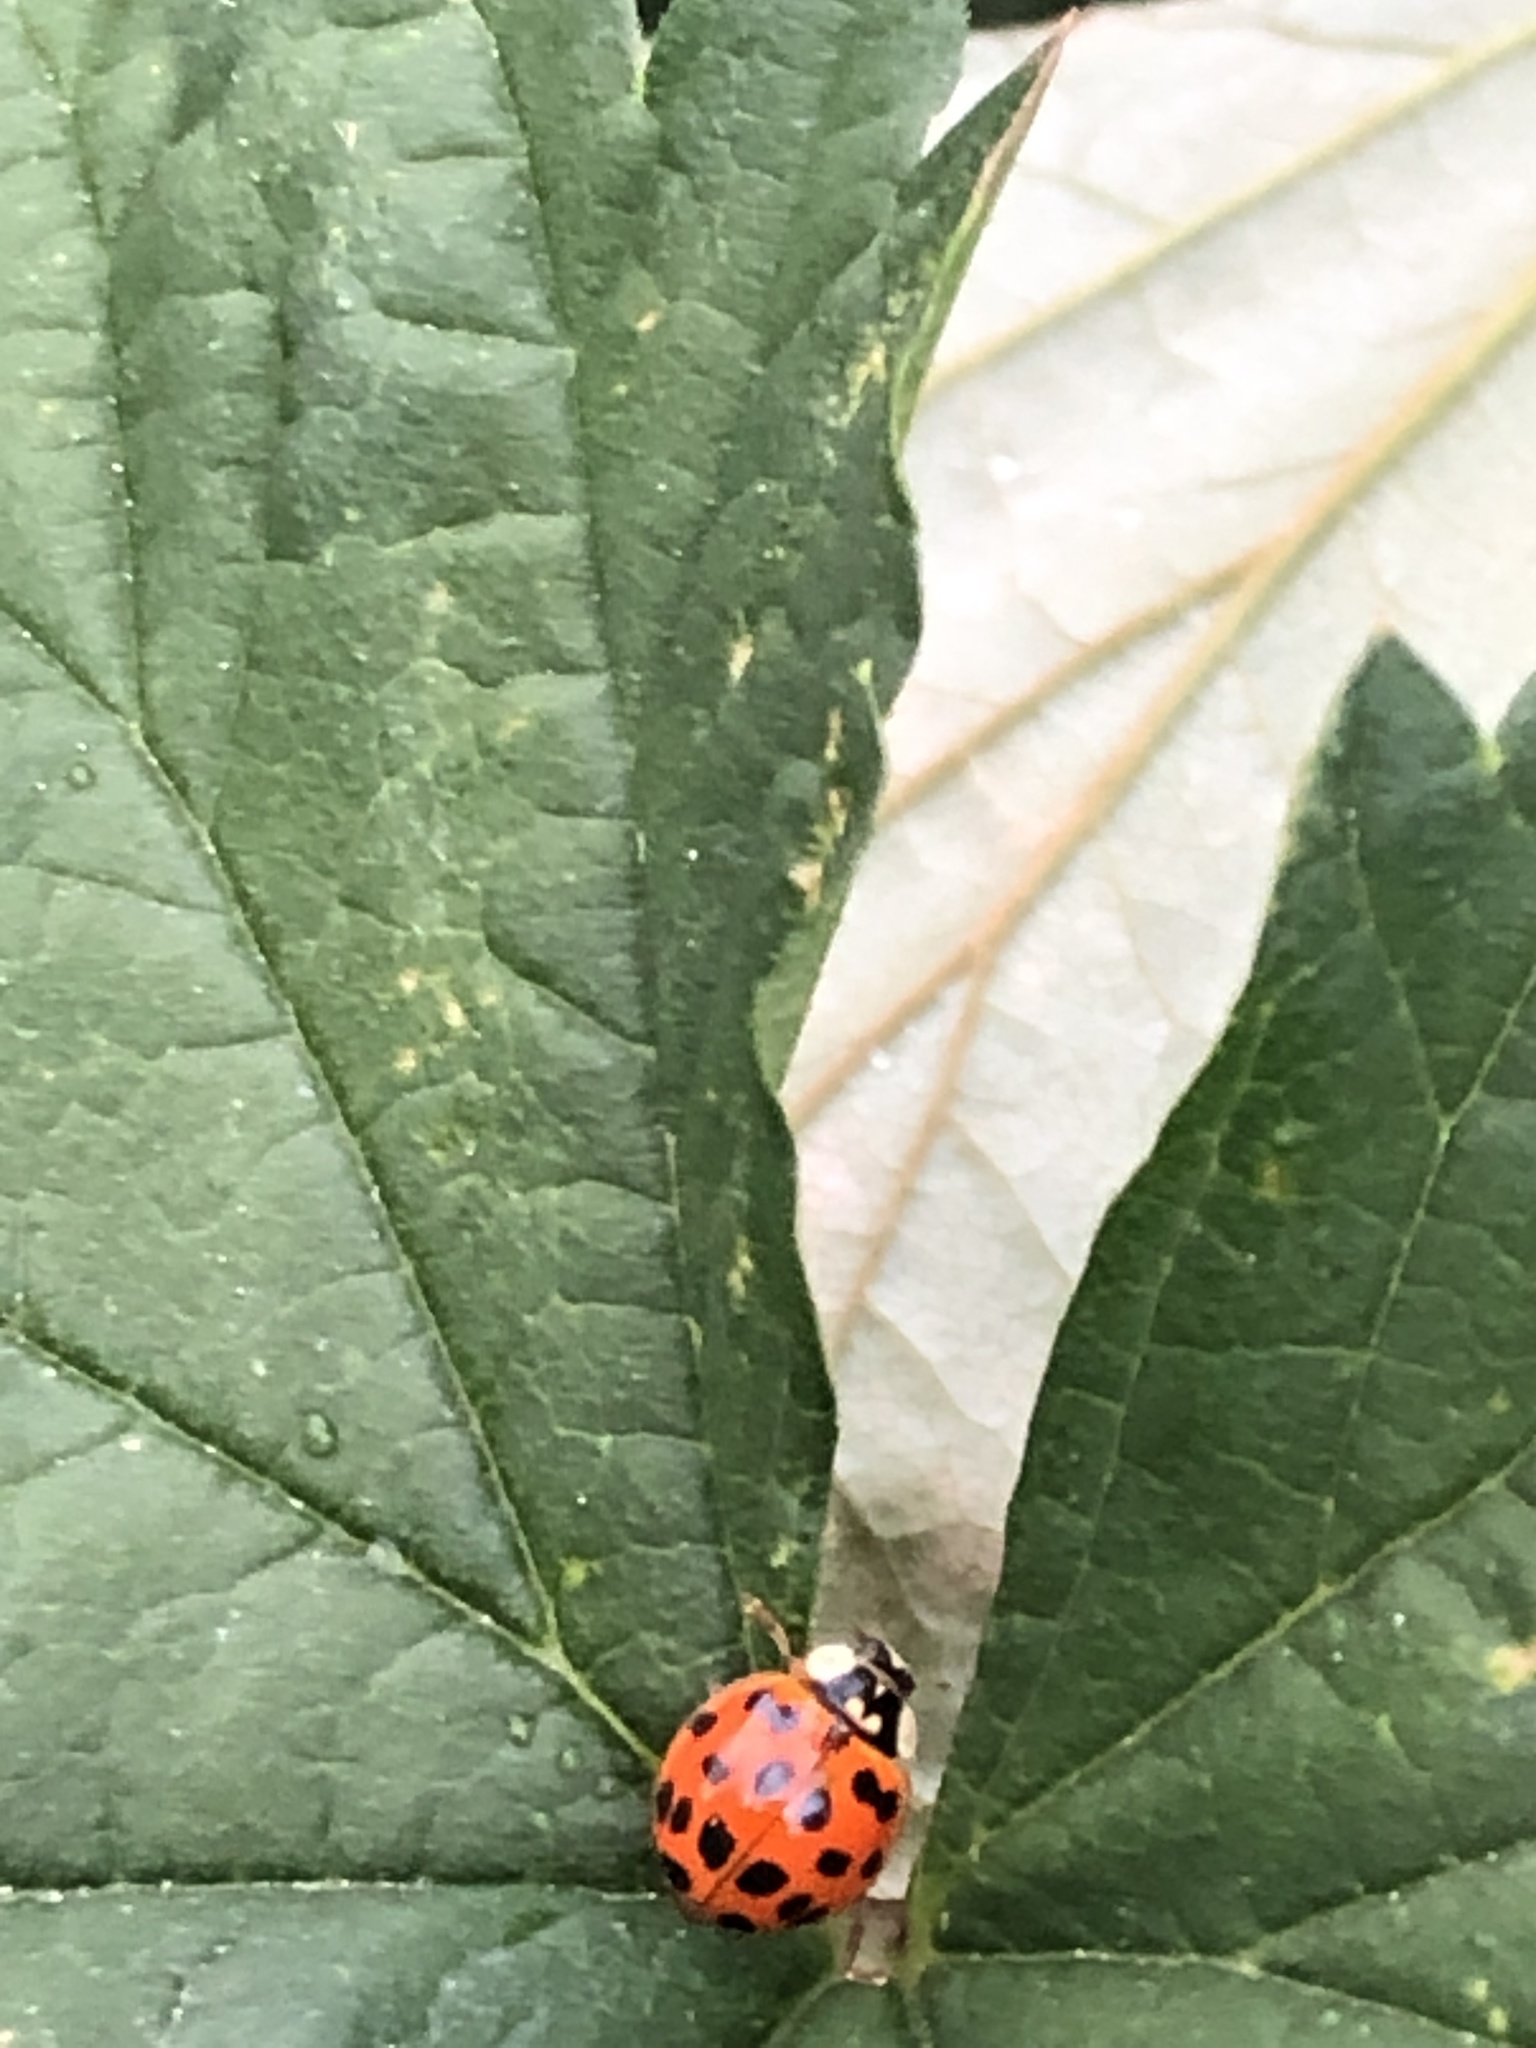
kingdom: Animalia
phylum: Arthropoda
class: Insecta
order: Coleoptera
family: Coccinellidae
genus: Harmonia
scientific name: Harmonia axyridis
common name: Harlequin ladybird
